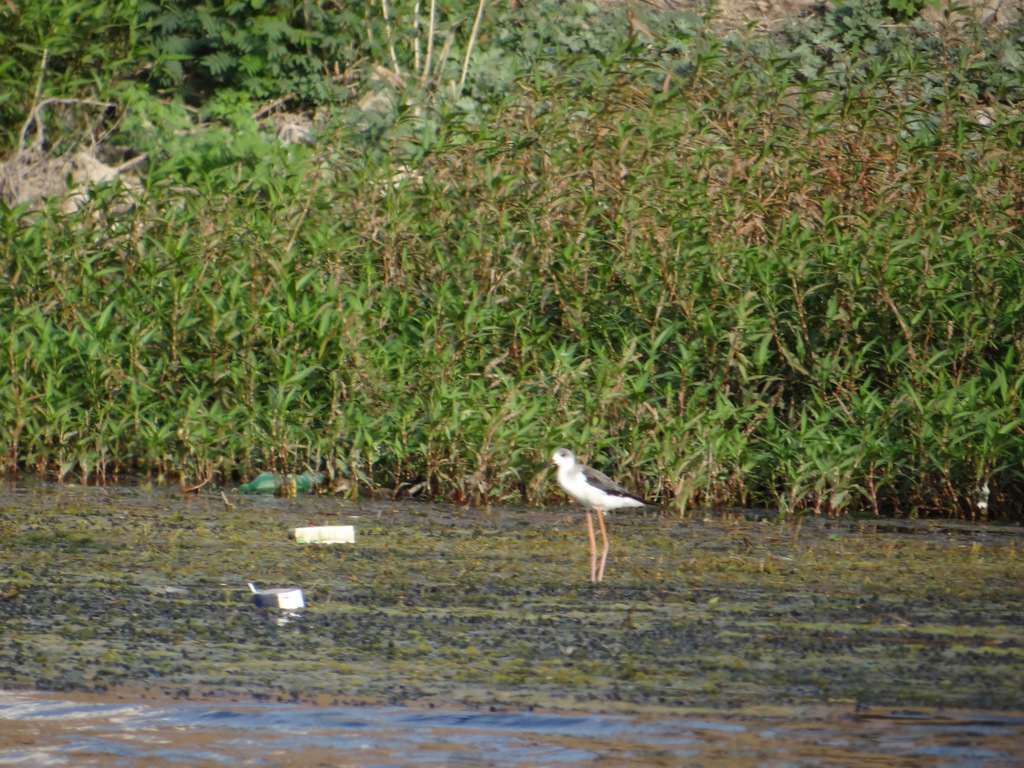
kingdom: Animalia
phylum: Chordata
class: Aves
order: Charadriiformes
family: Recurvirostridae
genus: Himantopus
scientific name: Himantopus himantopus
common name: Black-winged stilt
